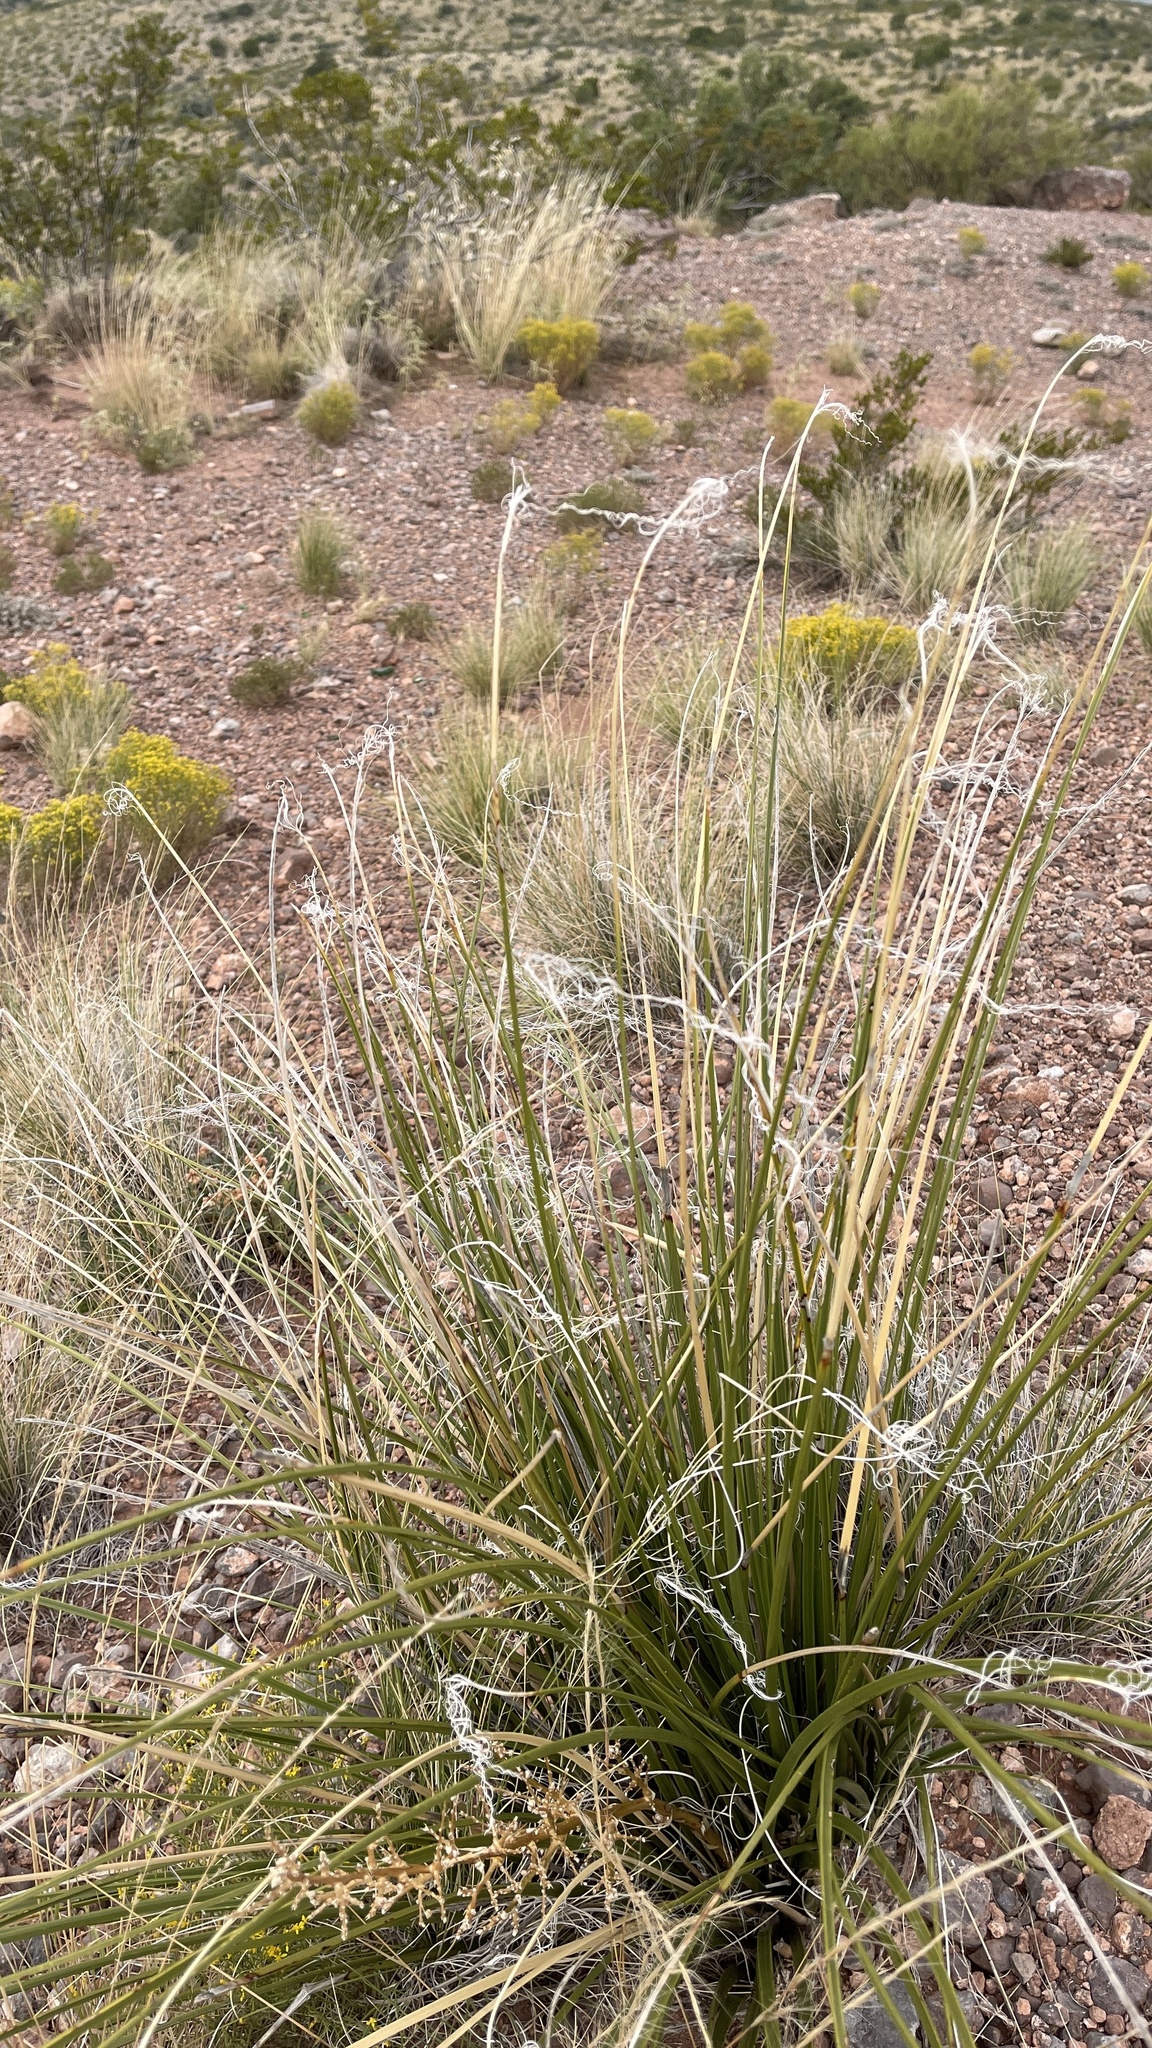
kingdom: Plantae
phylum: Tracheophyta
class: Liliopsida
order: Asparagales
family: Asparagaceae
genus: Nolina
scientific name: Nolina texana
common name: Texas sacahuiste
